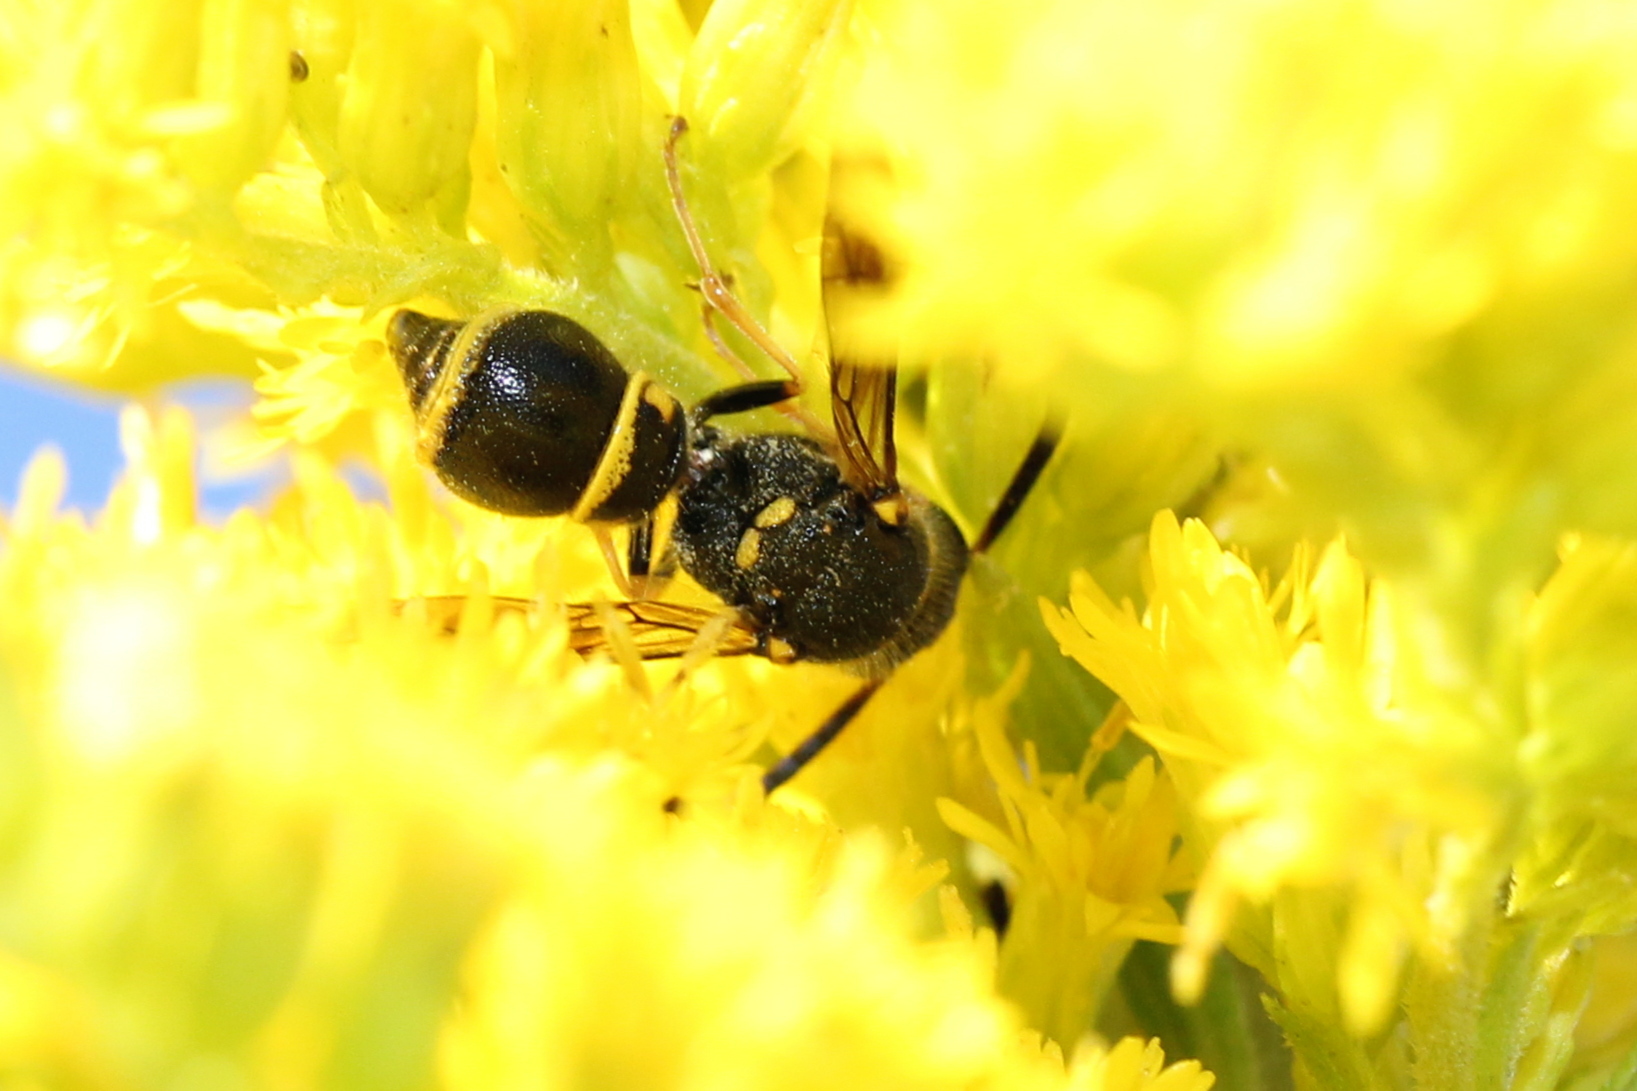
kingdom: Animalia
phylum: Arthropoda
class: Insecta
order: Hymenoptera
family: Vespidae
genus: Ancistrocerus
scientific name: Ancistrocerus unifasciatus
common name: One-banded mason wasp
